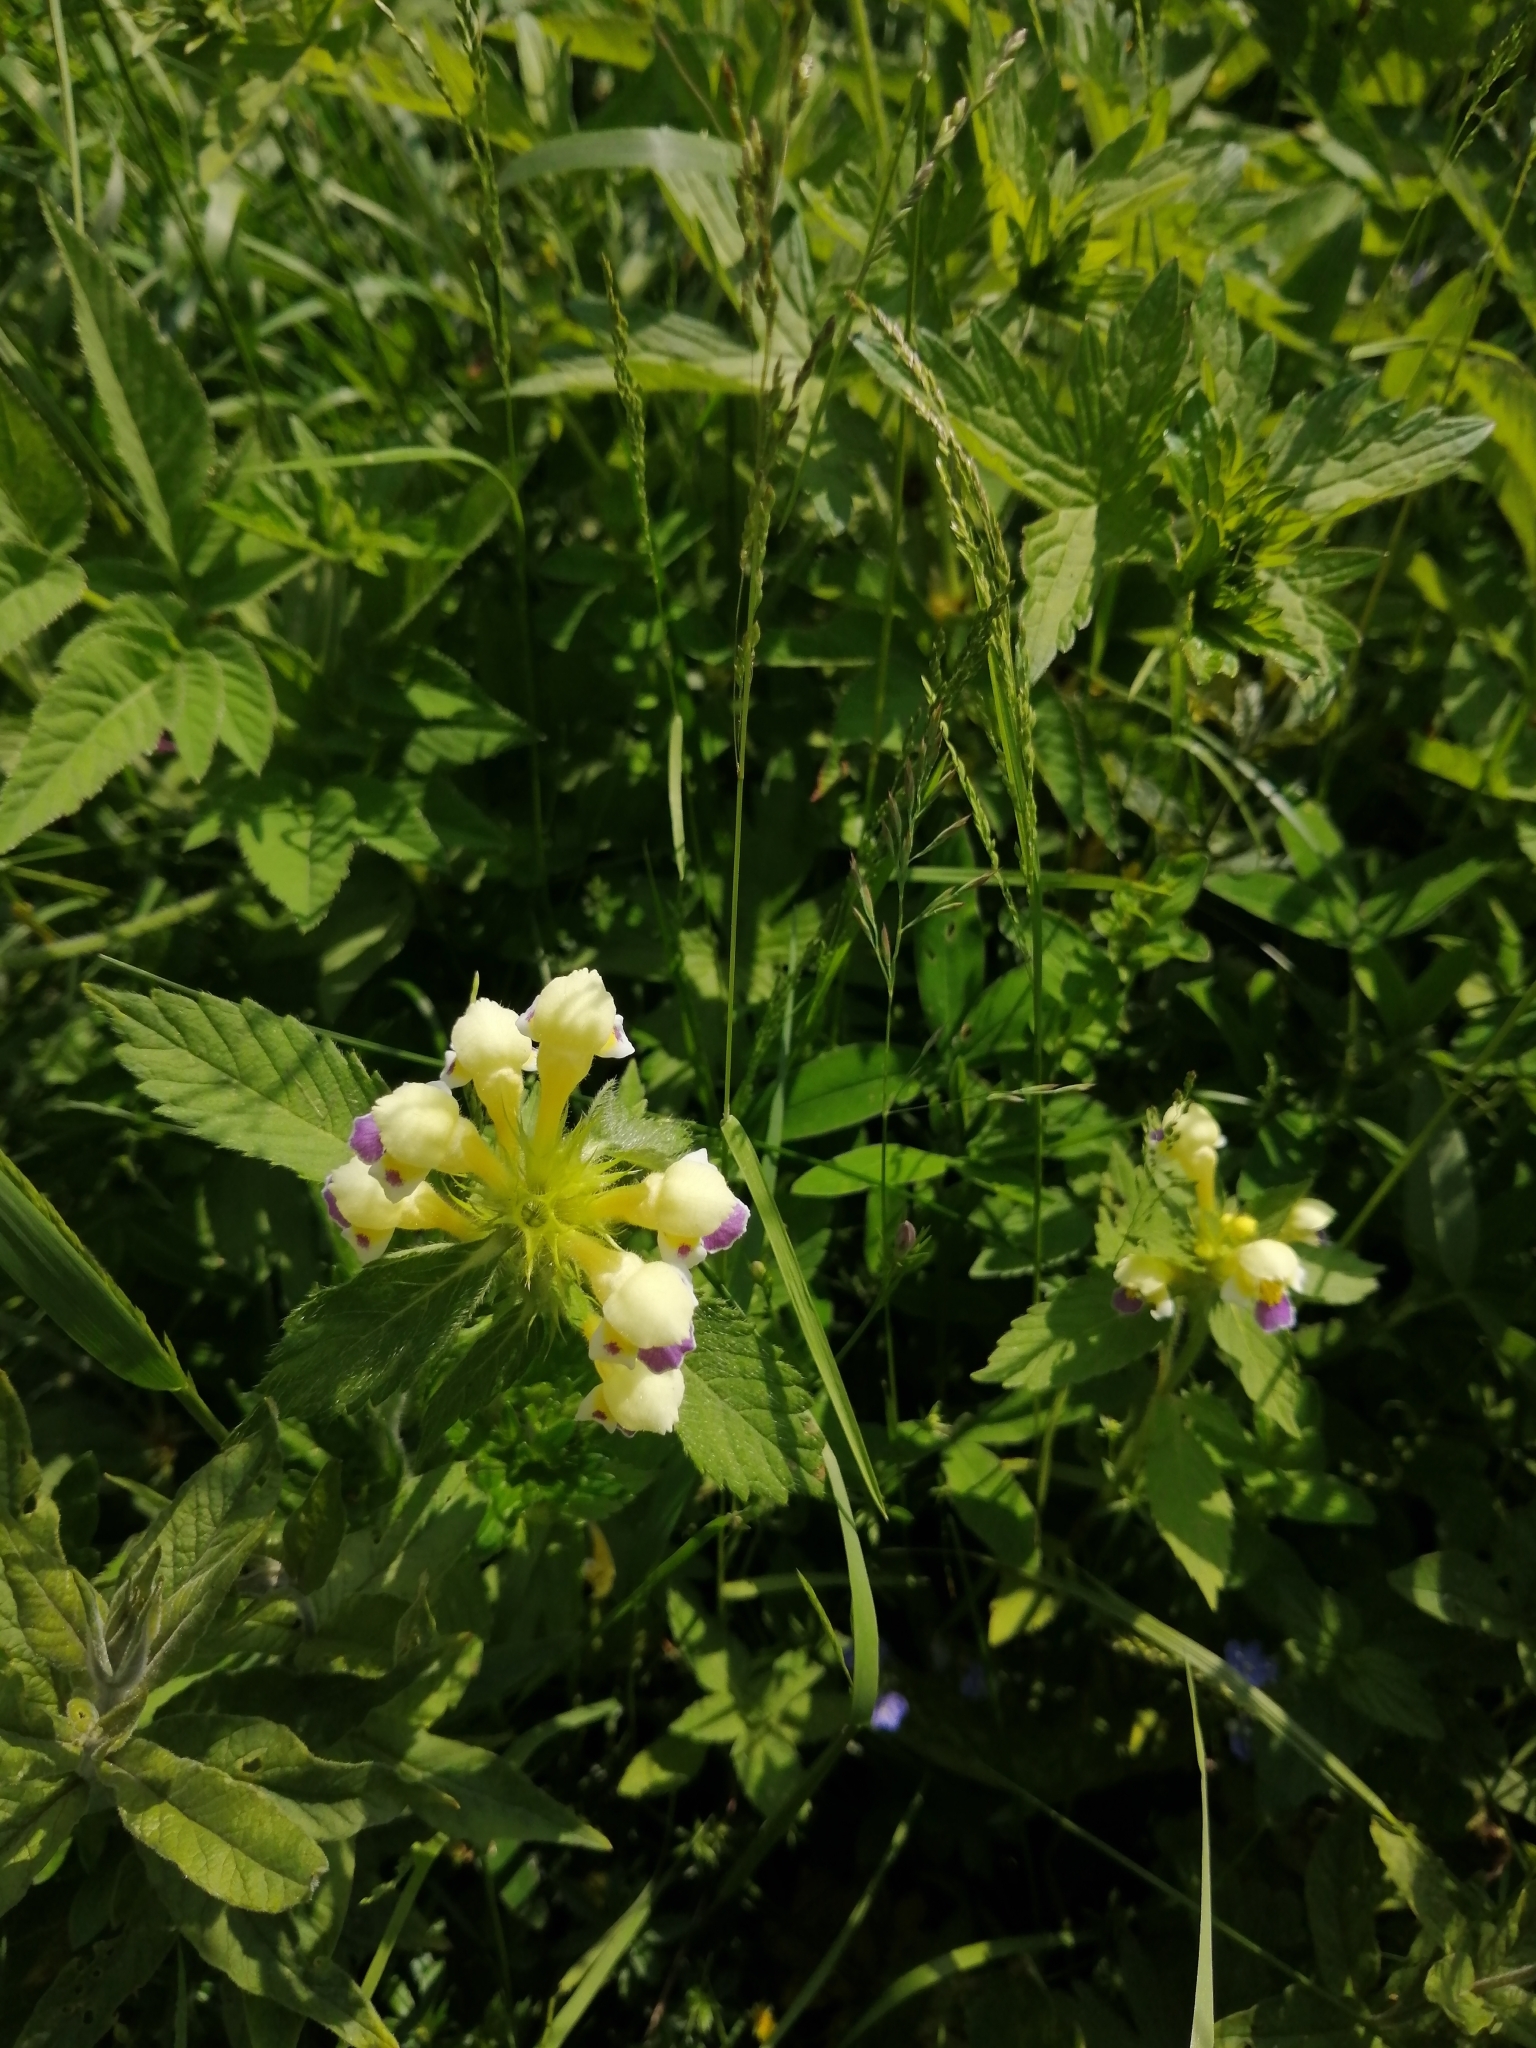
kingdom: Plantae
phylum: Tracheophyta
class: Magnoliopsida
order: Lamiales
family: Lamiaceae
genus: Galeopsis
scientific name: Galeopsis speciosa
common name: Large-flowered hemp-nettle
